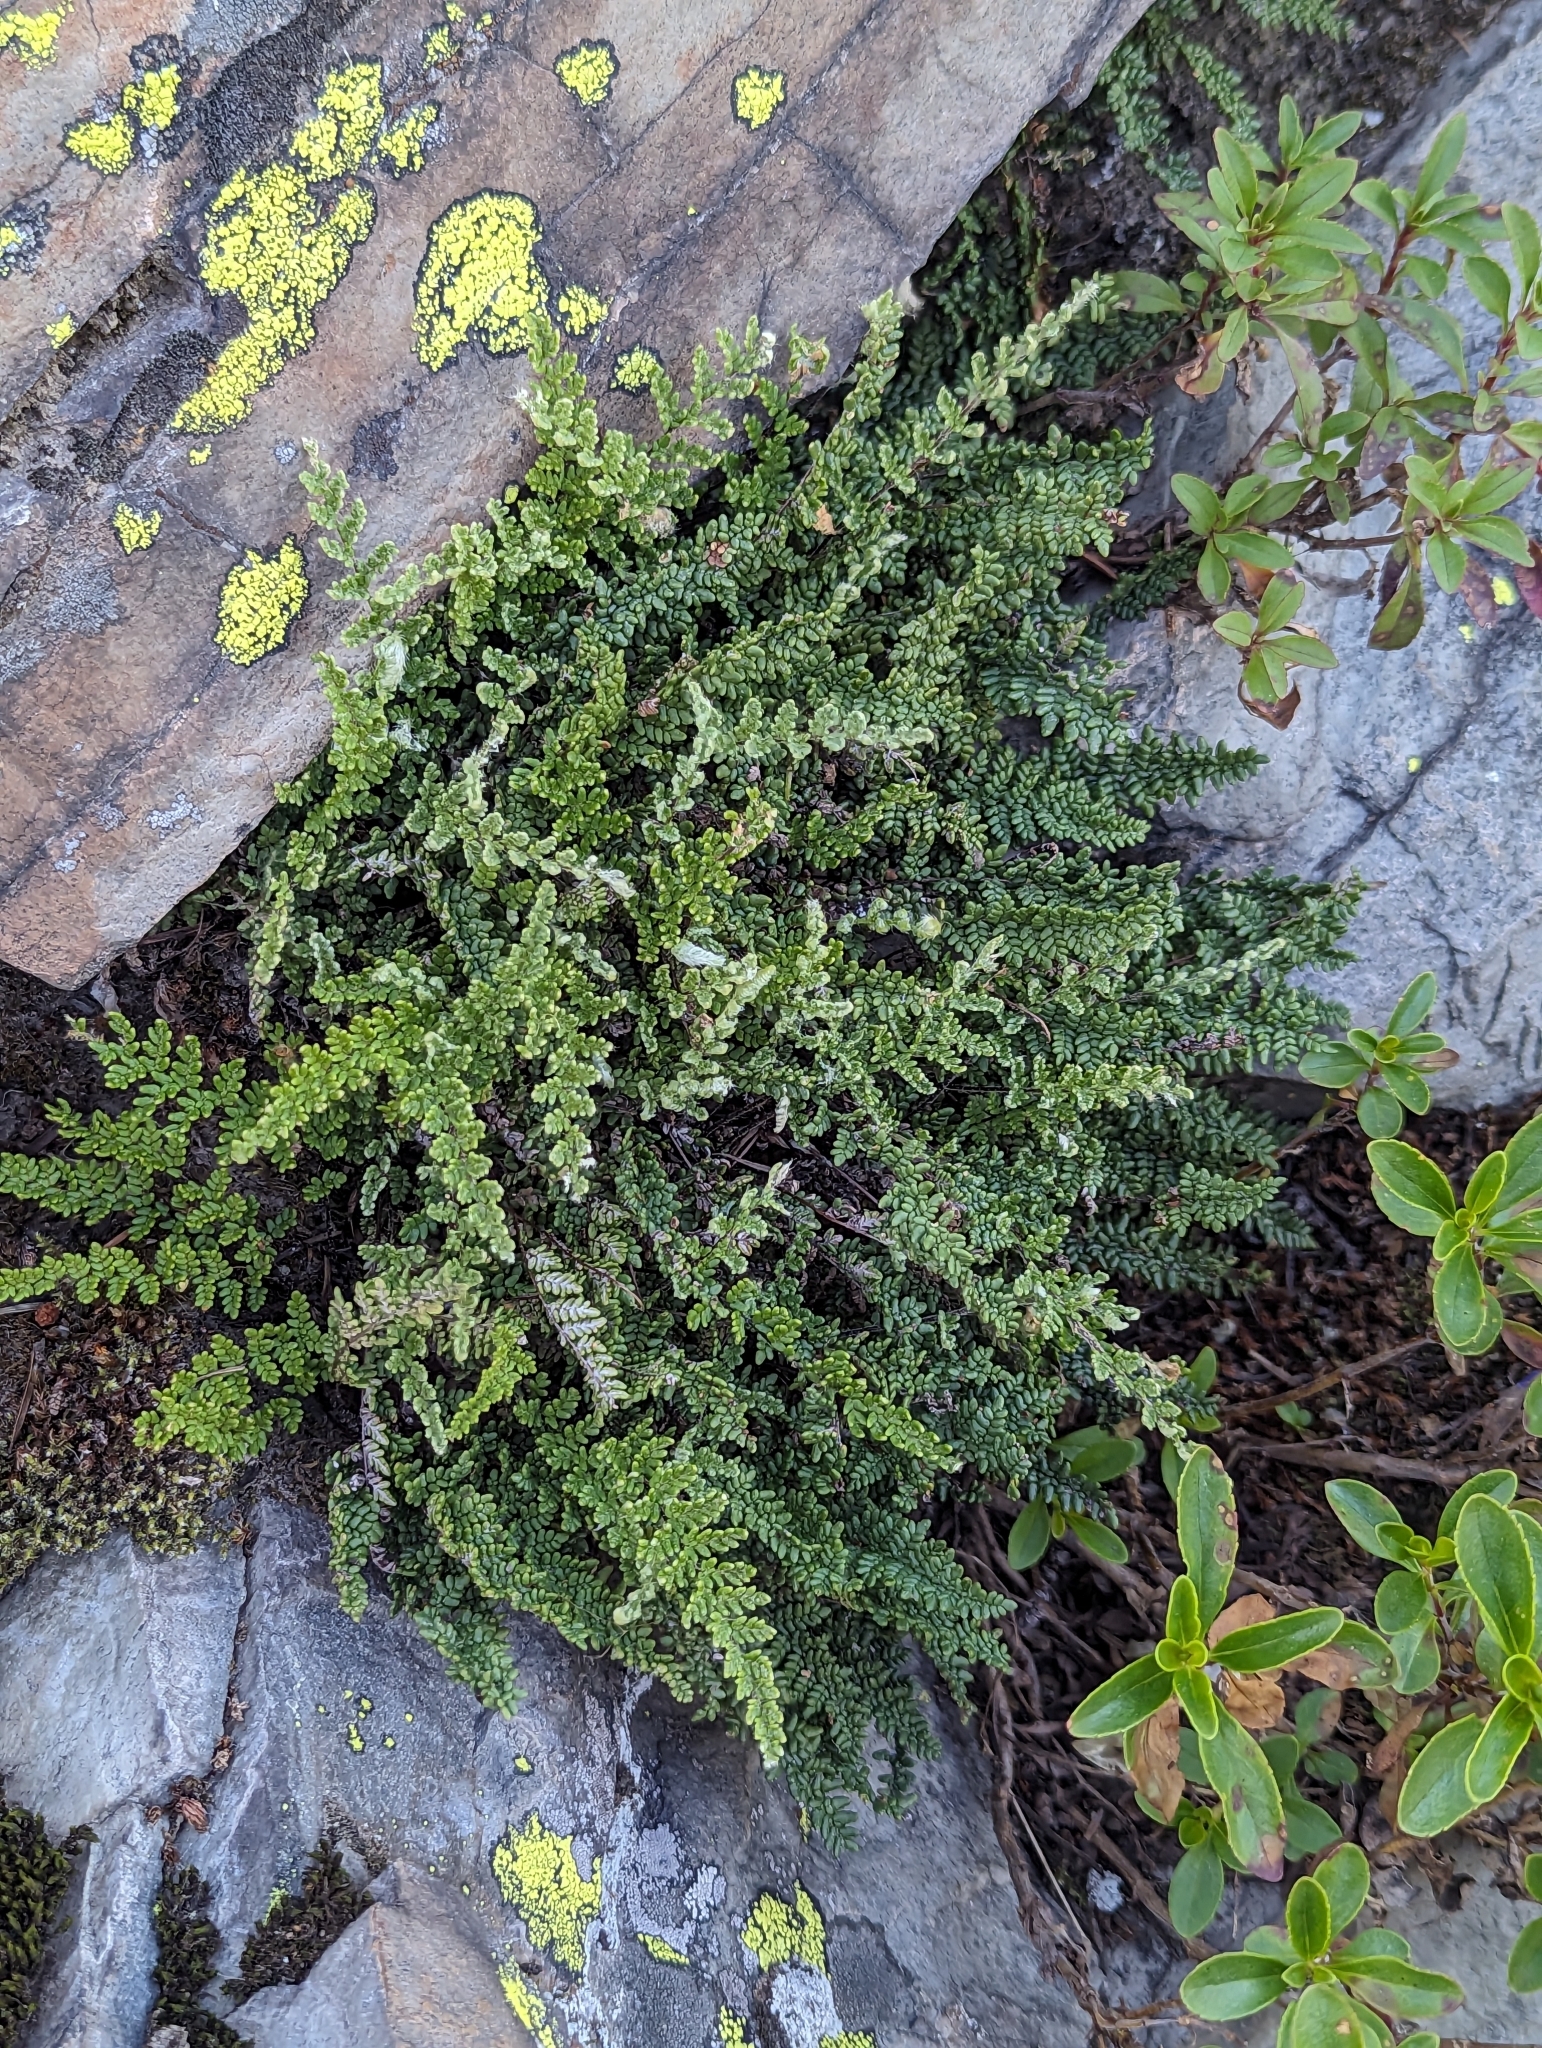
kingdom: Plantae
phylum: Tracheophyta
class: Polypodiopsida
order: Polypodiales
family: Pteridaceae
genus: Myriopteris
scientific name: Myriopteris gracillima
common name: Lace fern
